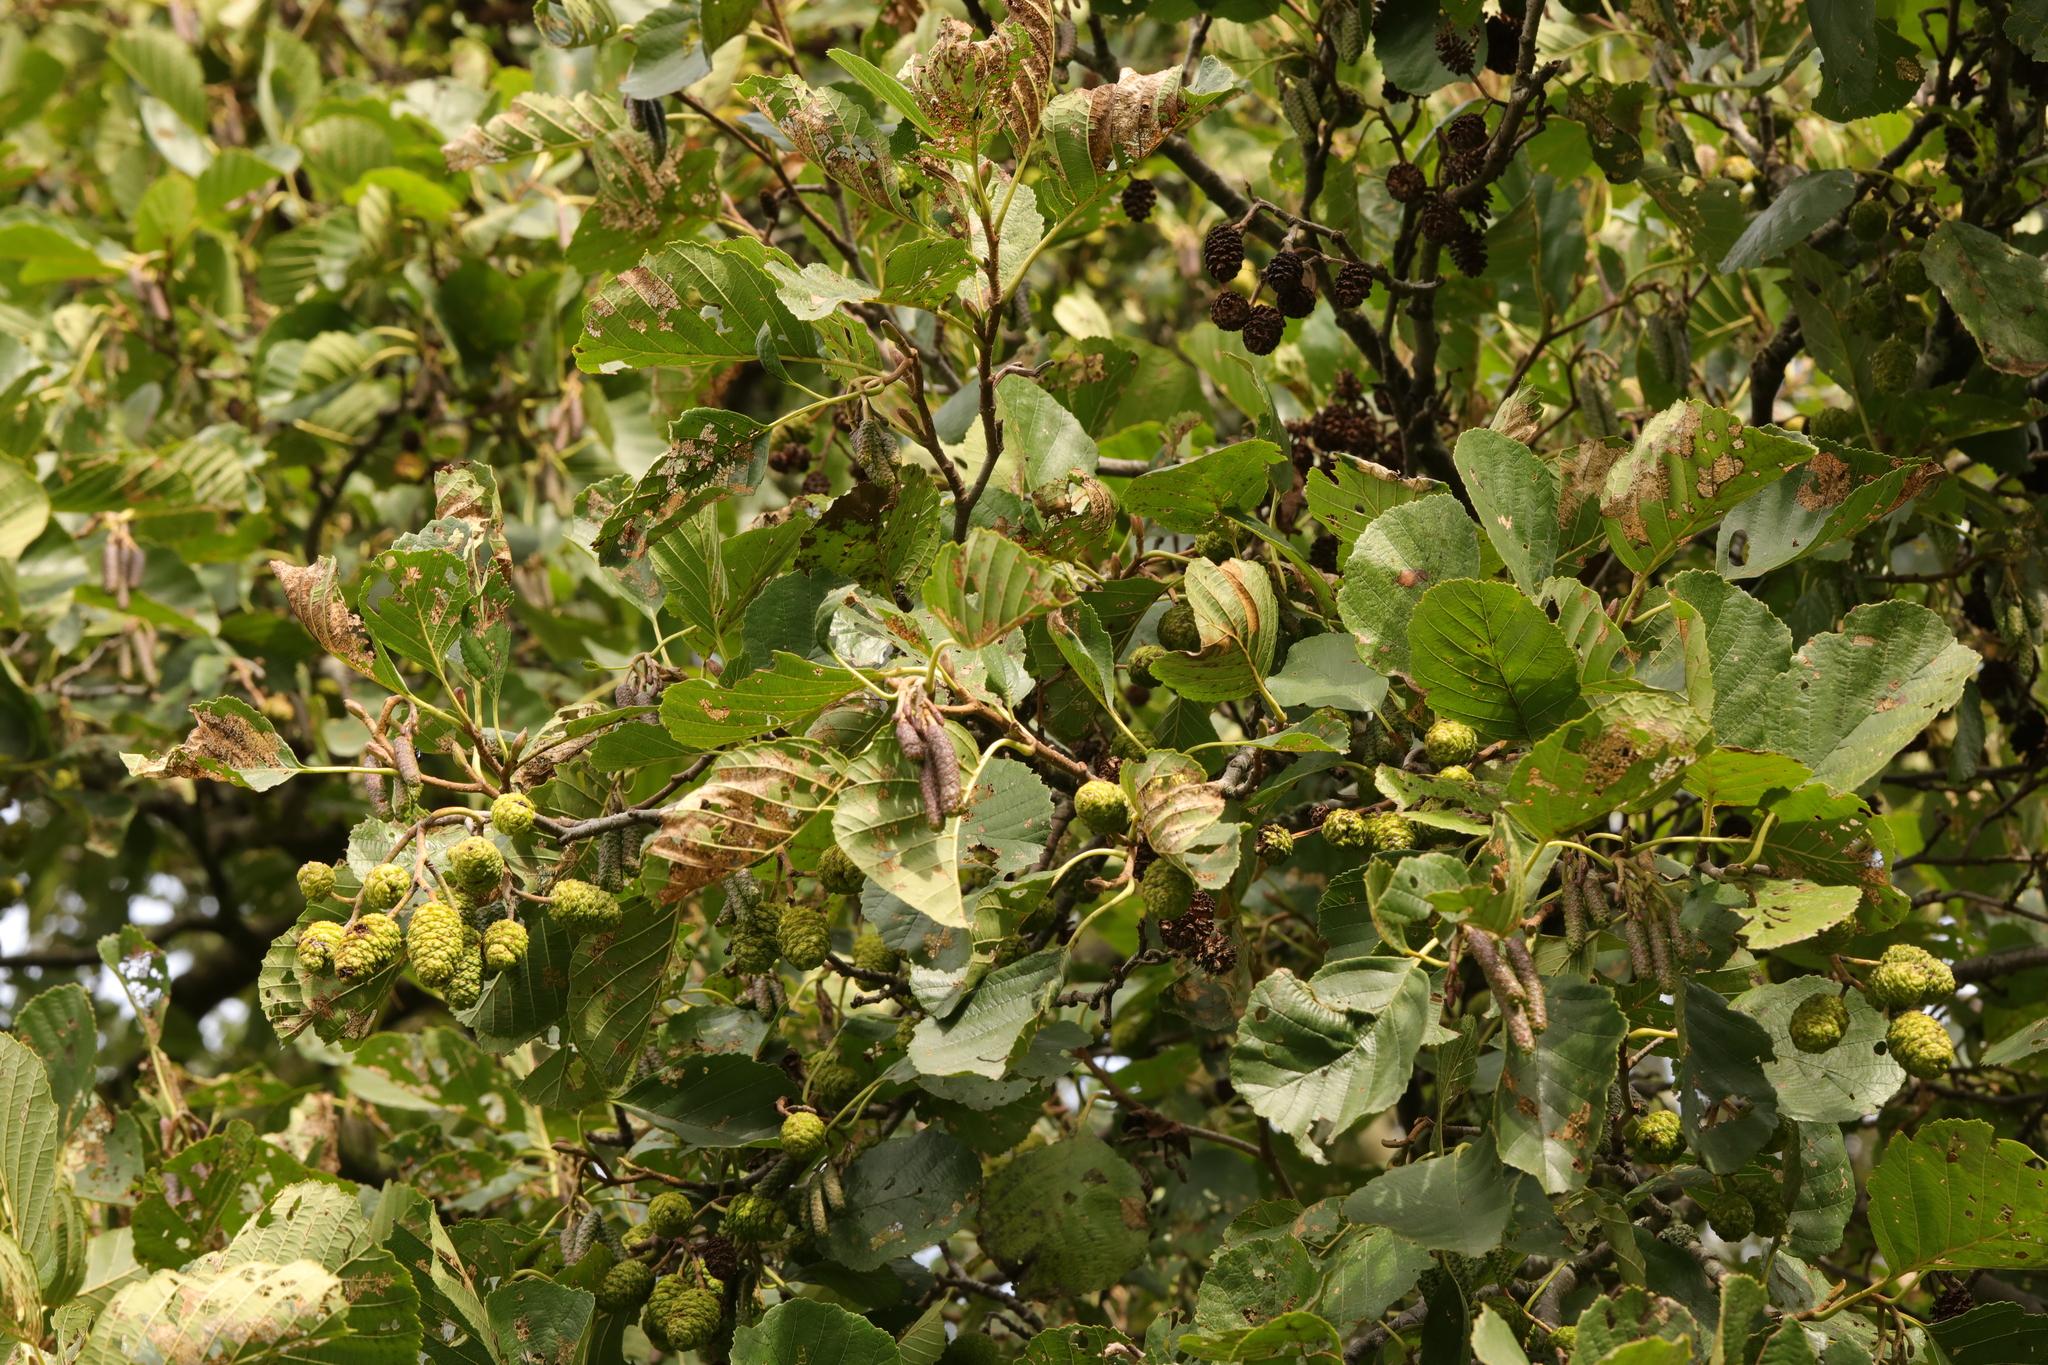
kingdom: Plantae
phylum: Tracheophyta
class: Magnoliopsida
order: Fagales
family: Betulaceae
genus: Alnus
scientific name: Alnus glutinosa
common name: Black alder
